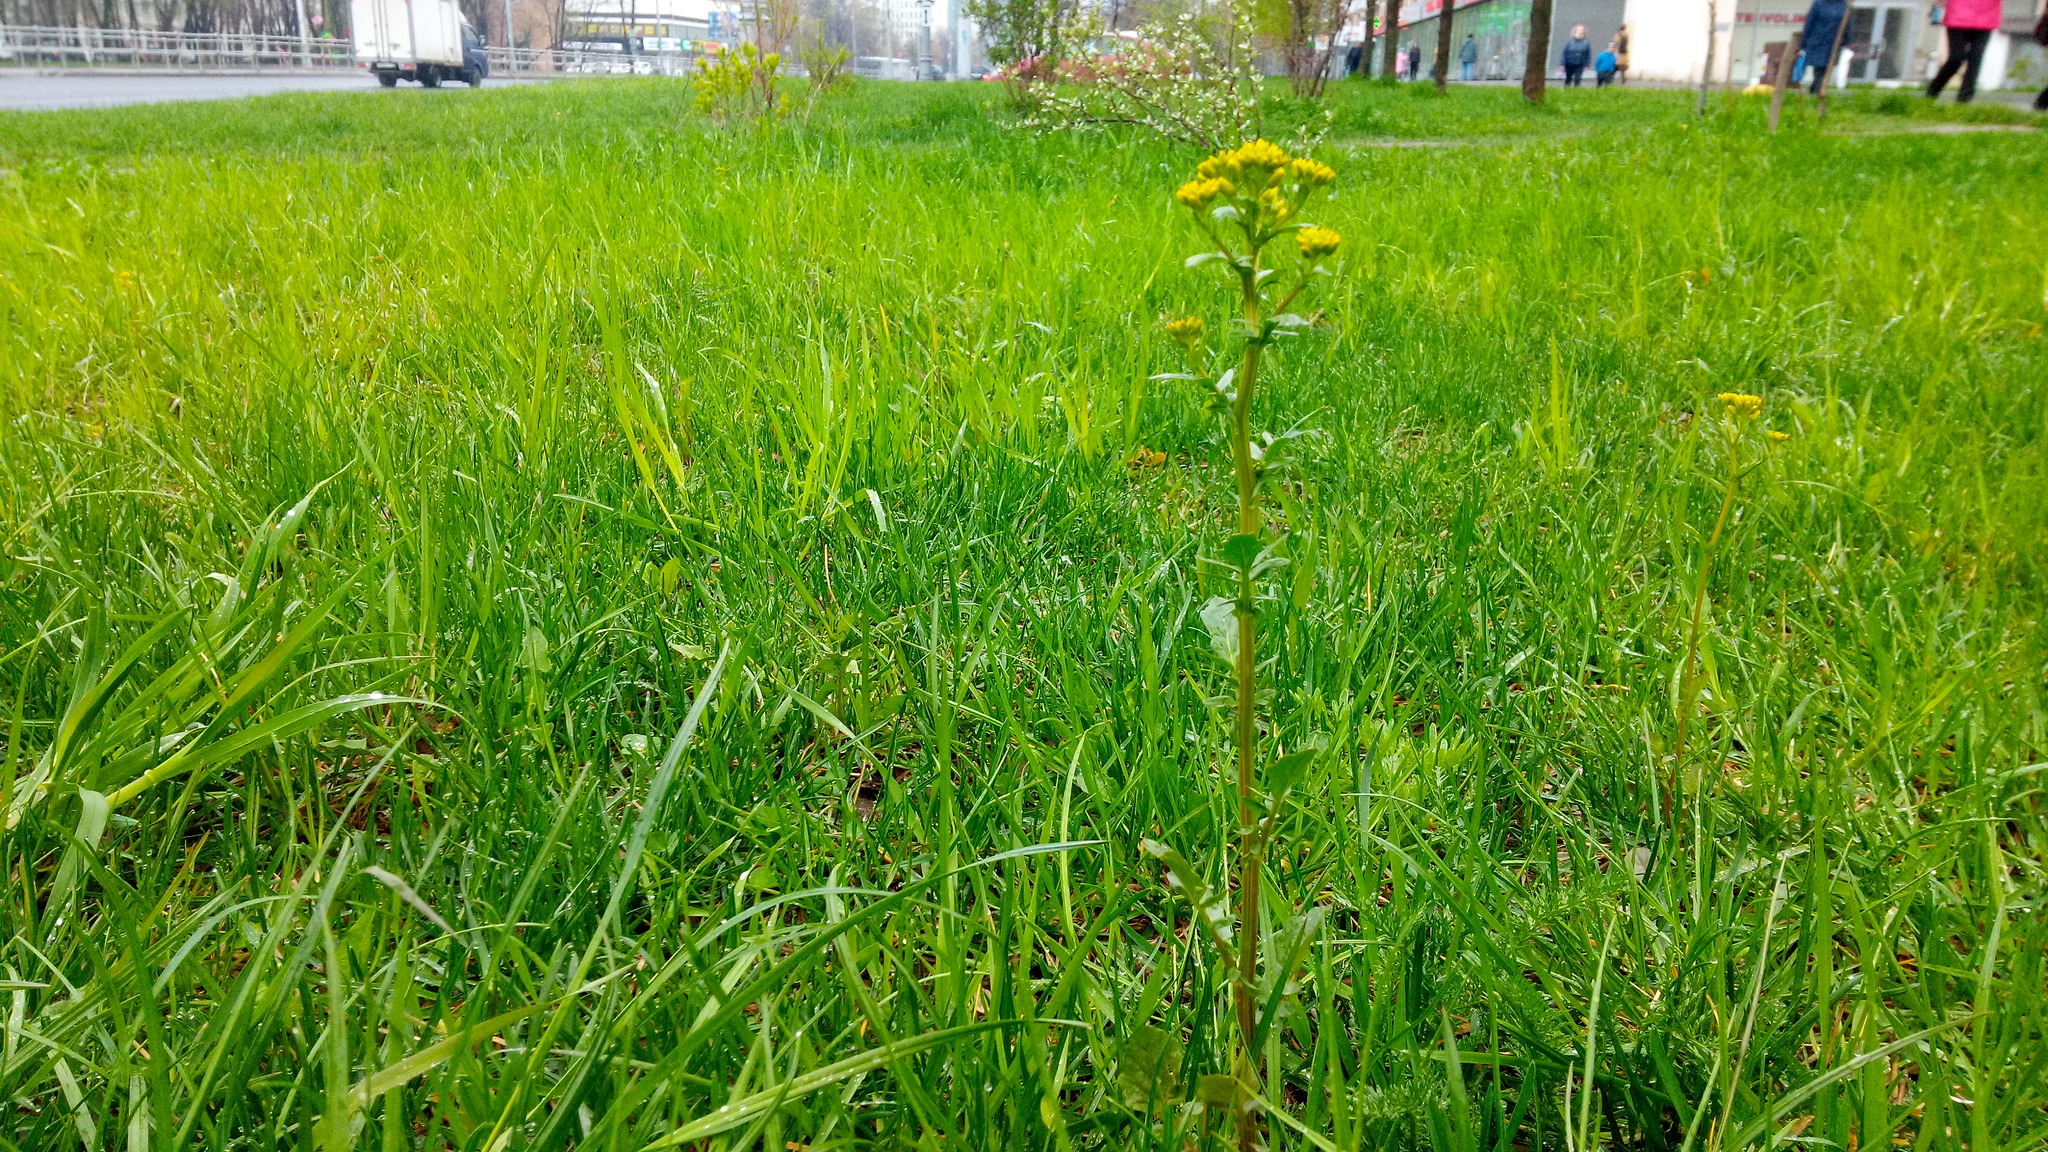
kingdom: Plantae
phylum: Tracheophyta
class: Magnoliopsida
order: Brassicales
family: Brassicaceae
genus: Barbarea
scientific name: Barbarea vulgaris
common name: Cressy-greens
